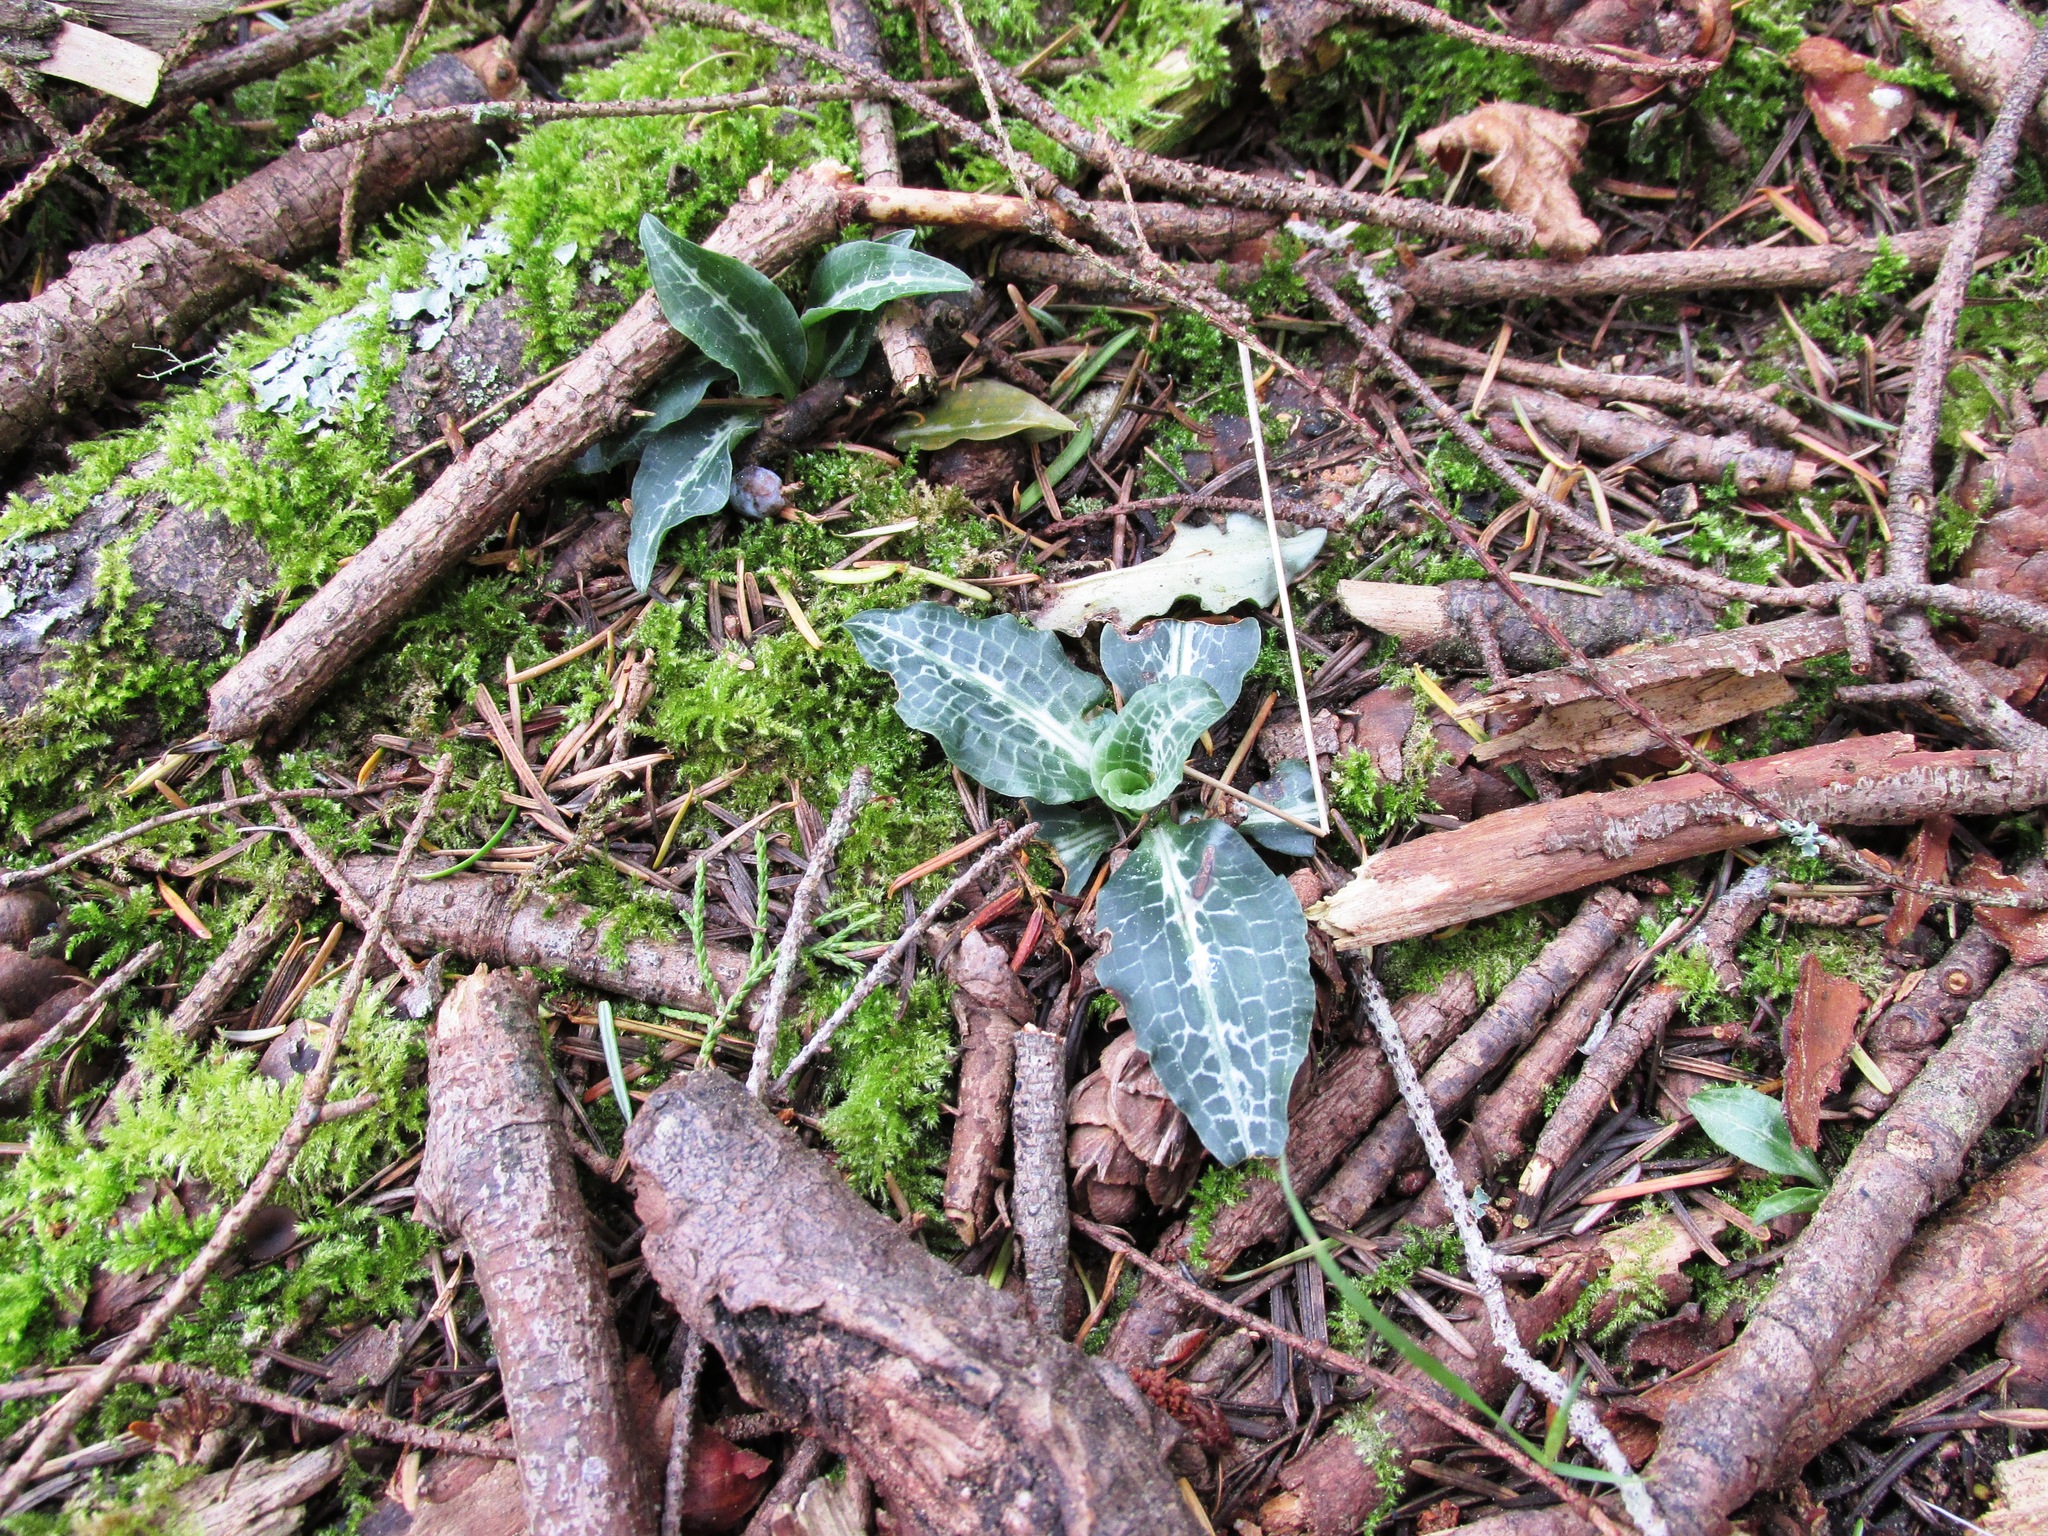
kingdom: Plantae
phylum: Tracheophyta
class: Liliopsida
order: Asparagales
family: Orchidaceae
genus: Goodyera
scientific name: Goodyera oblongifolia
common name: Giant rattlesnake-plantain
